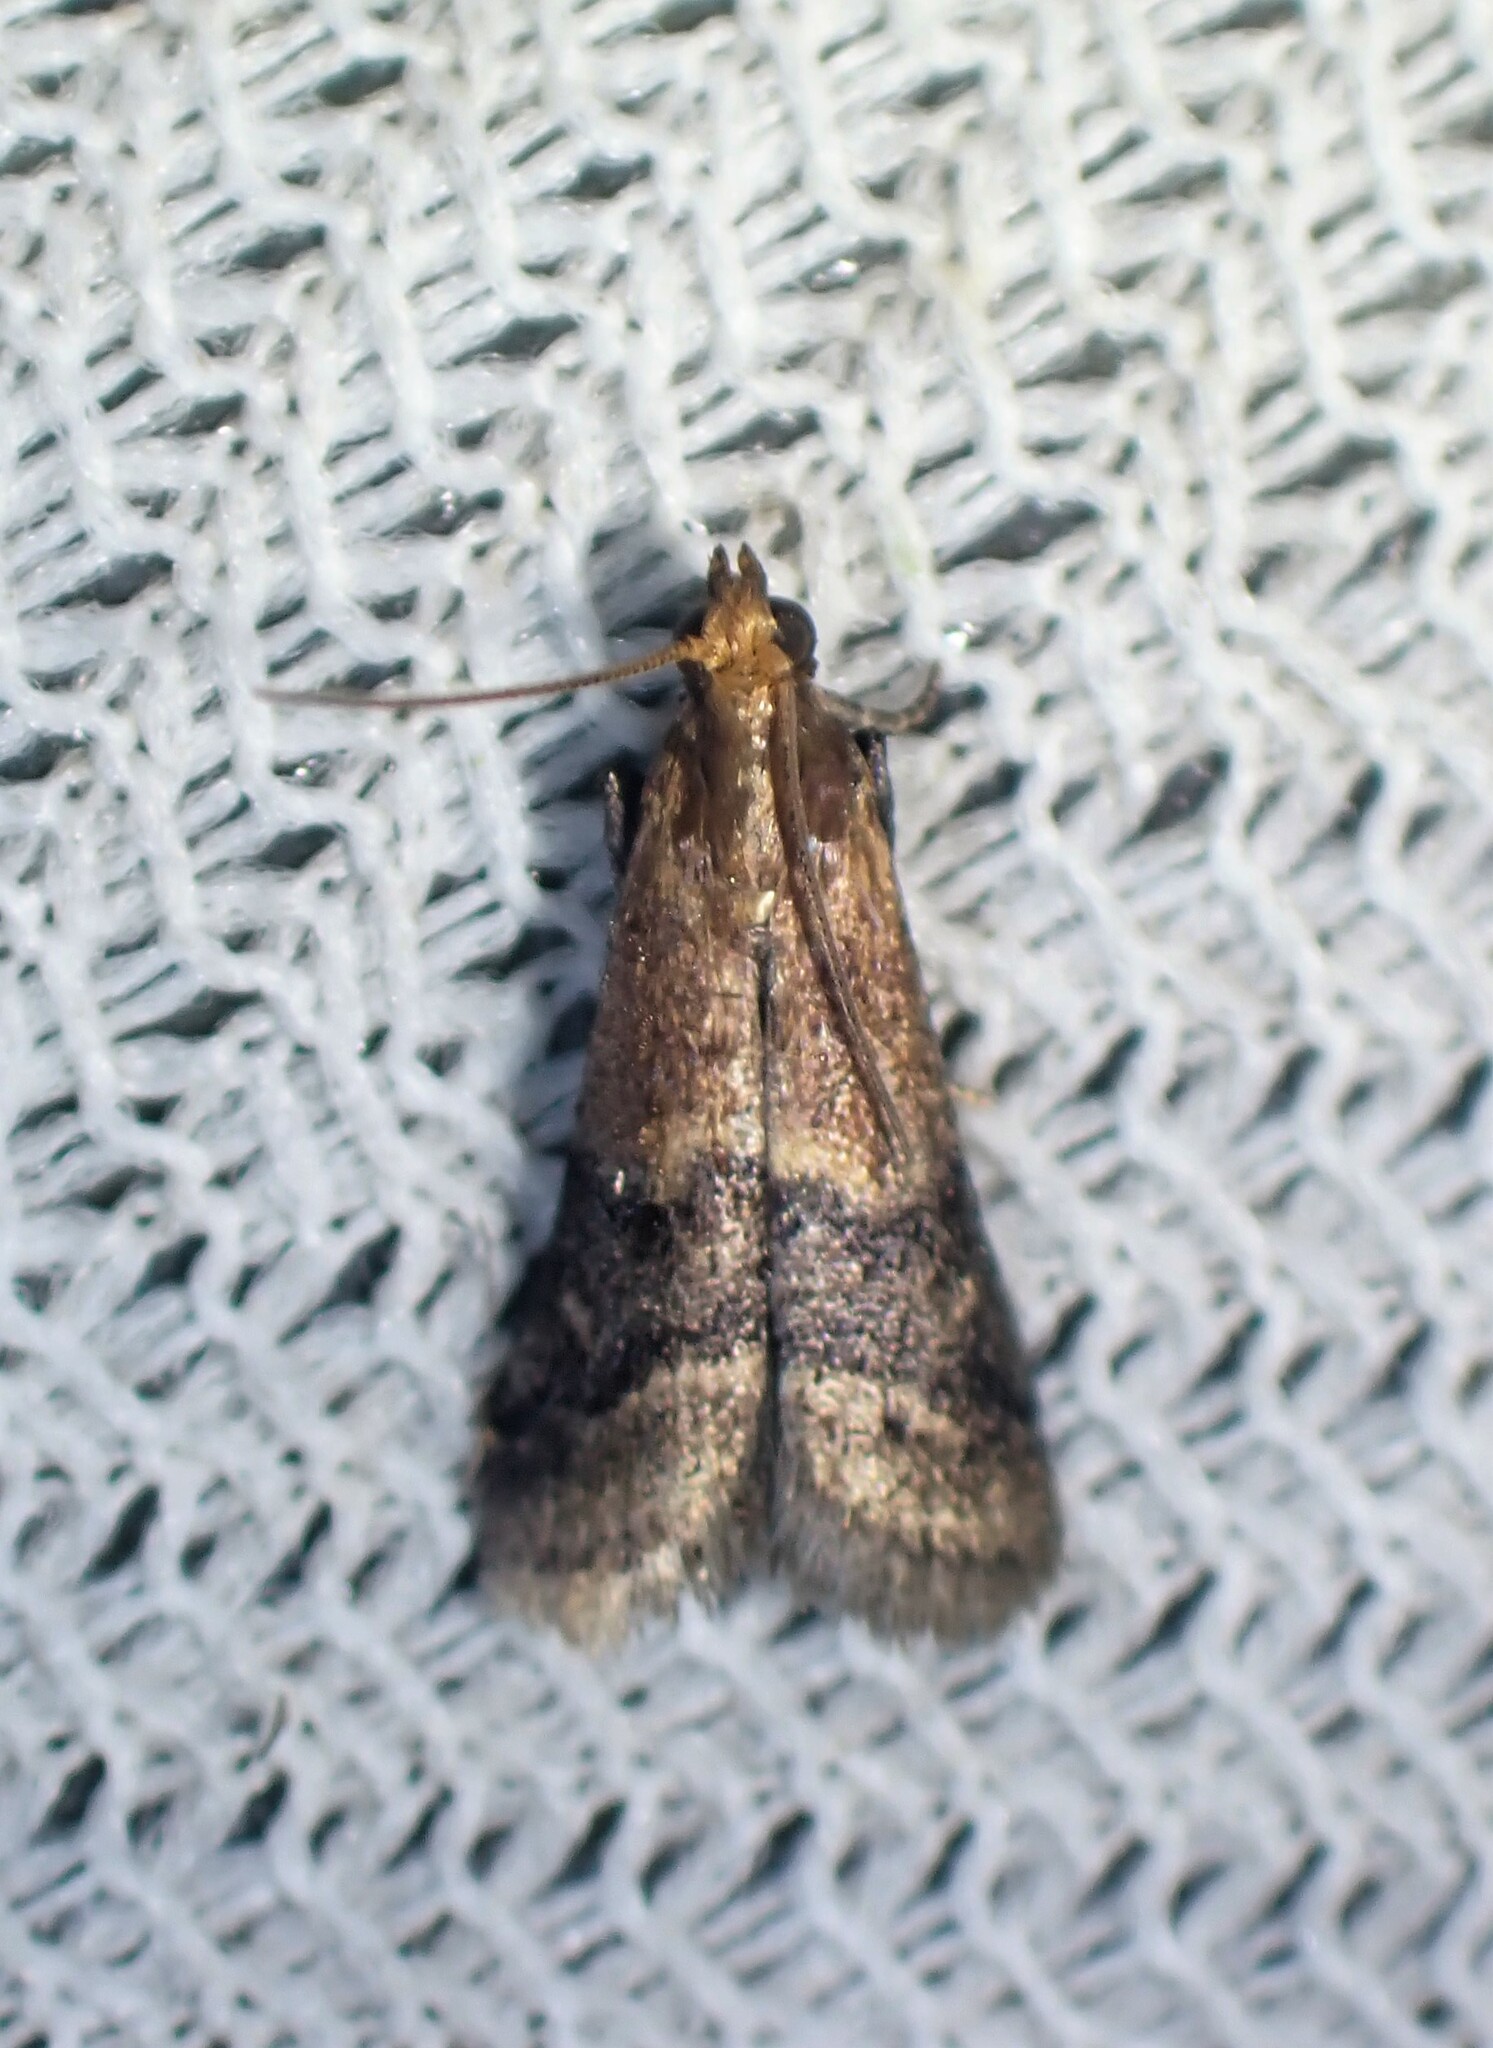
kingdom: Animalia
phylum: Arthropoda
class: Insecta
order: Lepidoptera
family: Pyralidae
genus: Eulogia
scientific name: Eulogia ochrifrontella
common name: Broad-banded eulogia moth
